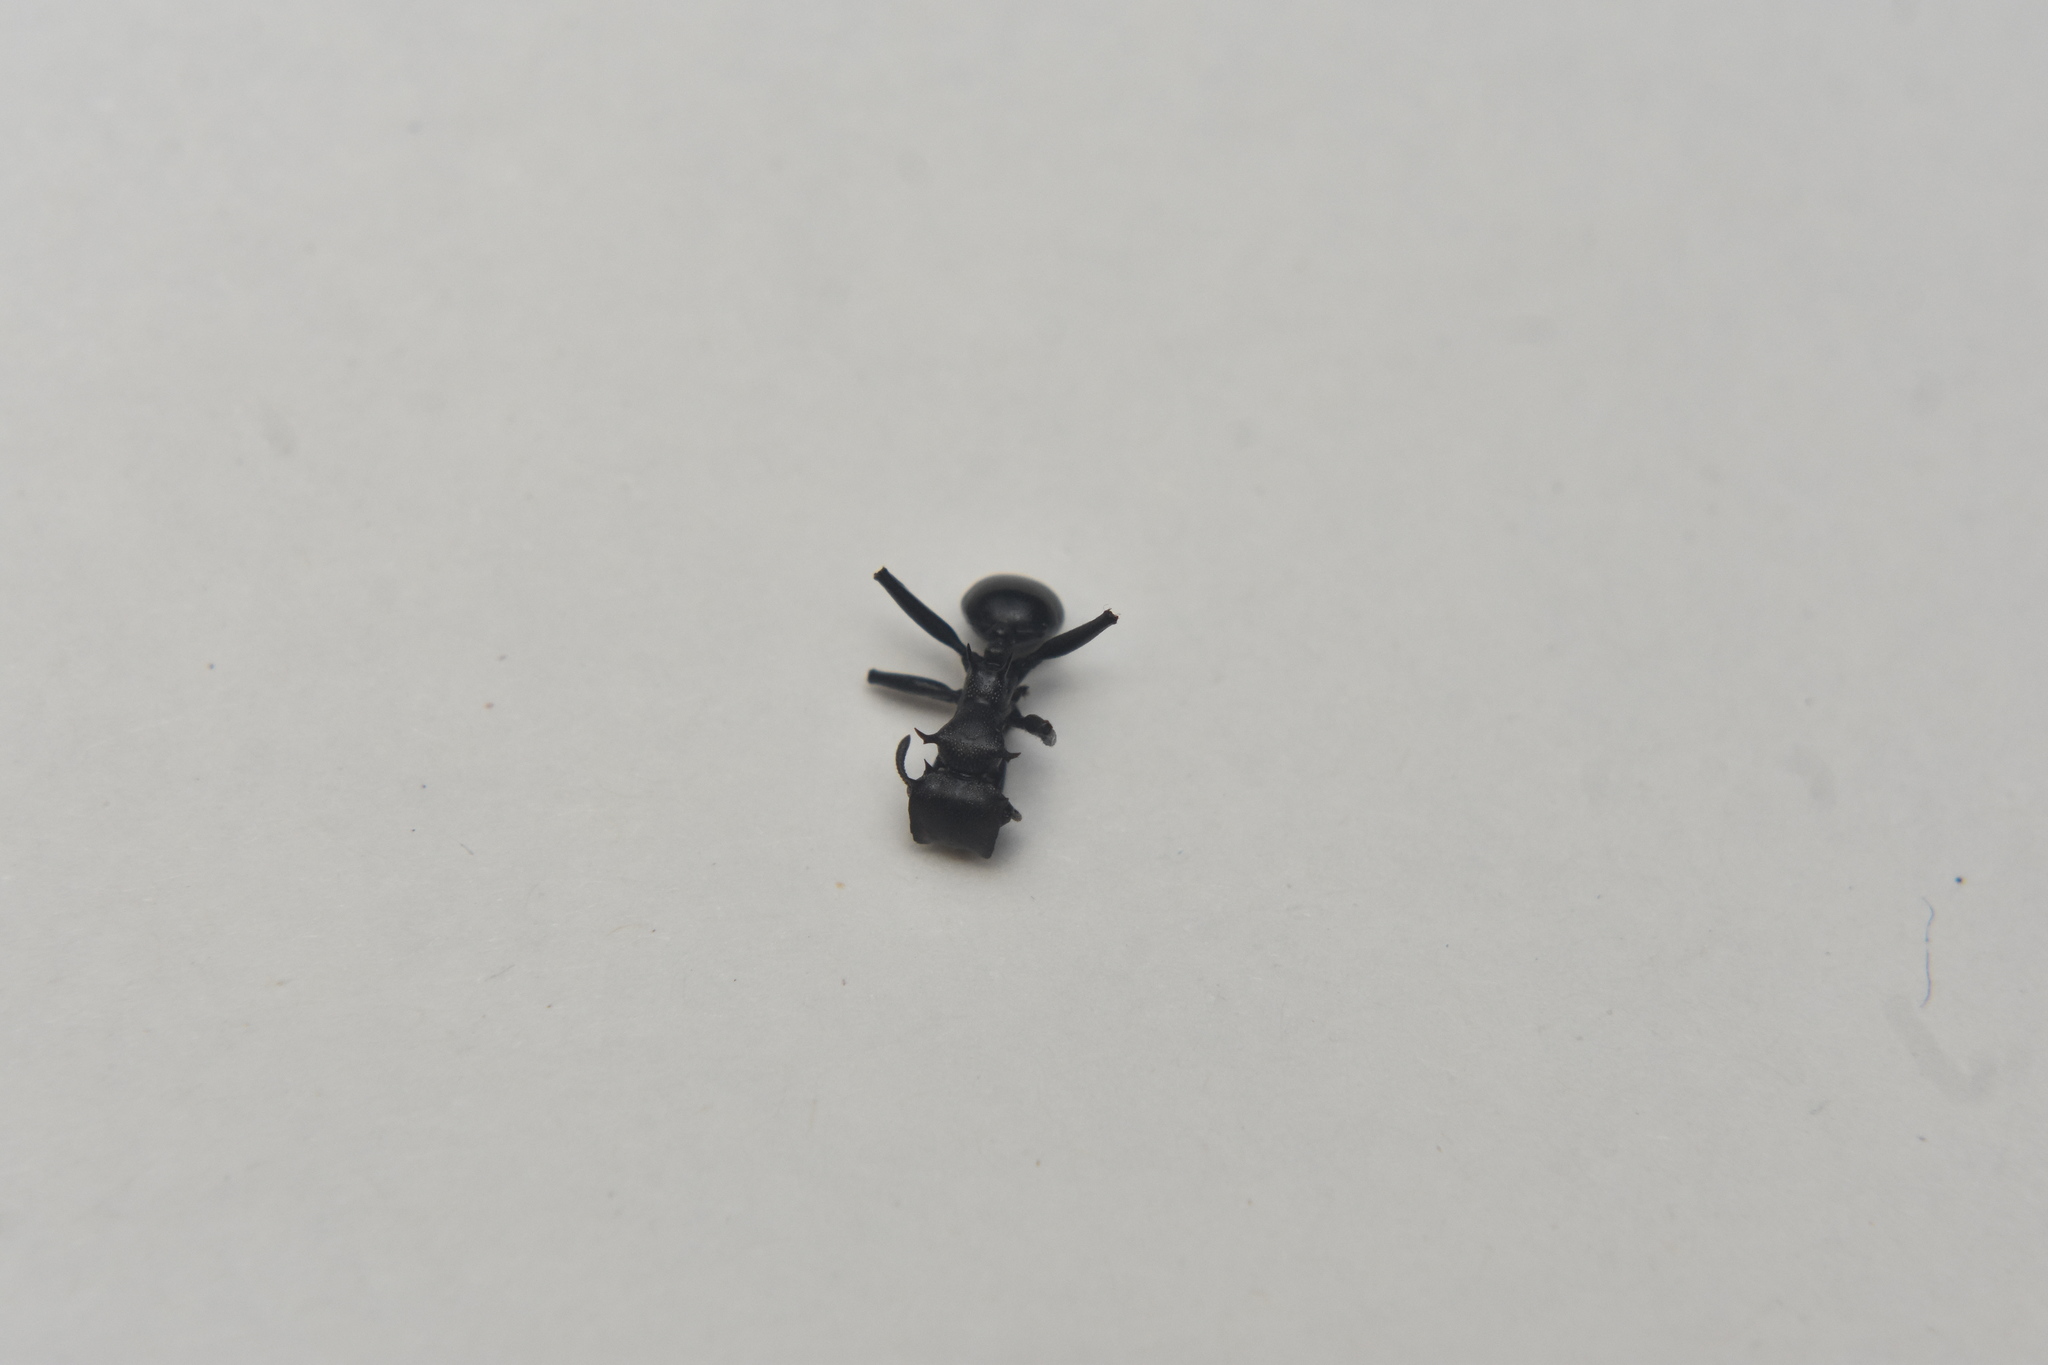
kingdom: Animalia
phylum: Arthropoda
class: Insecta
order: Hymenoptera
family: Formicidae
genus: Cephalotes
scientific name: Cephalotes atratus
